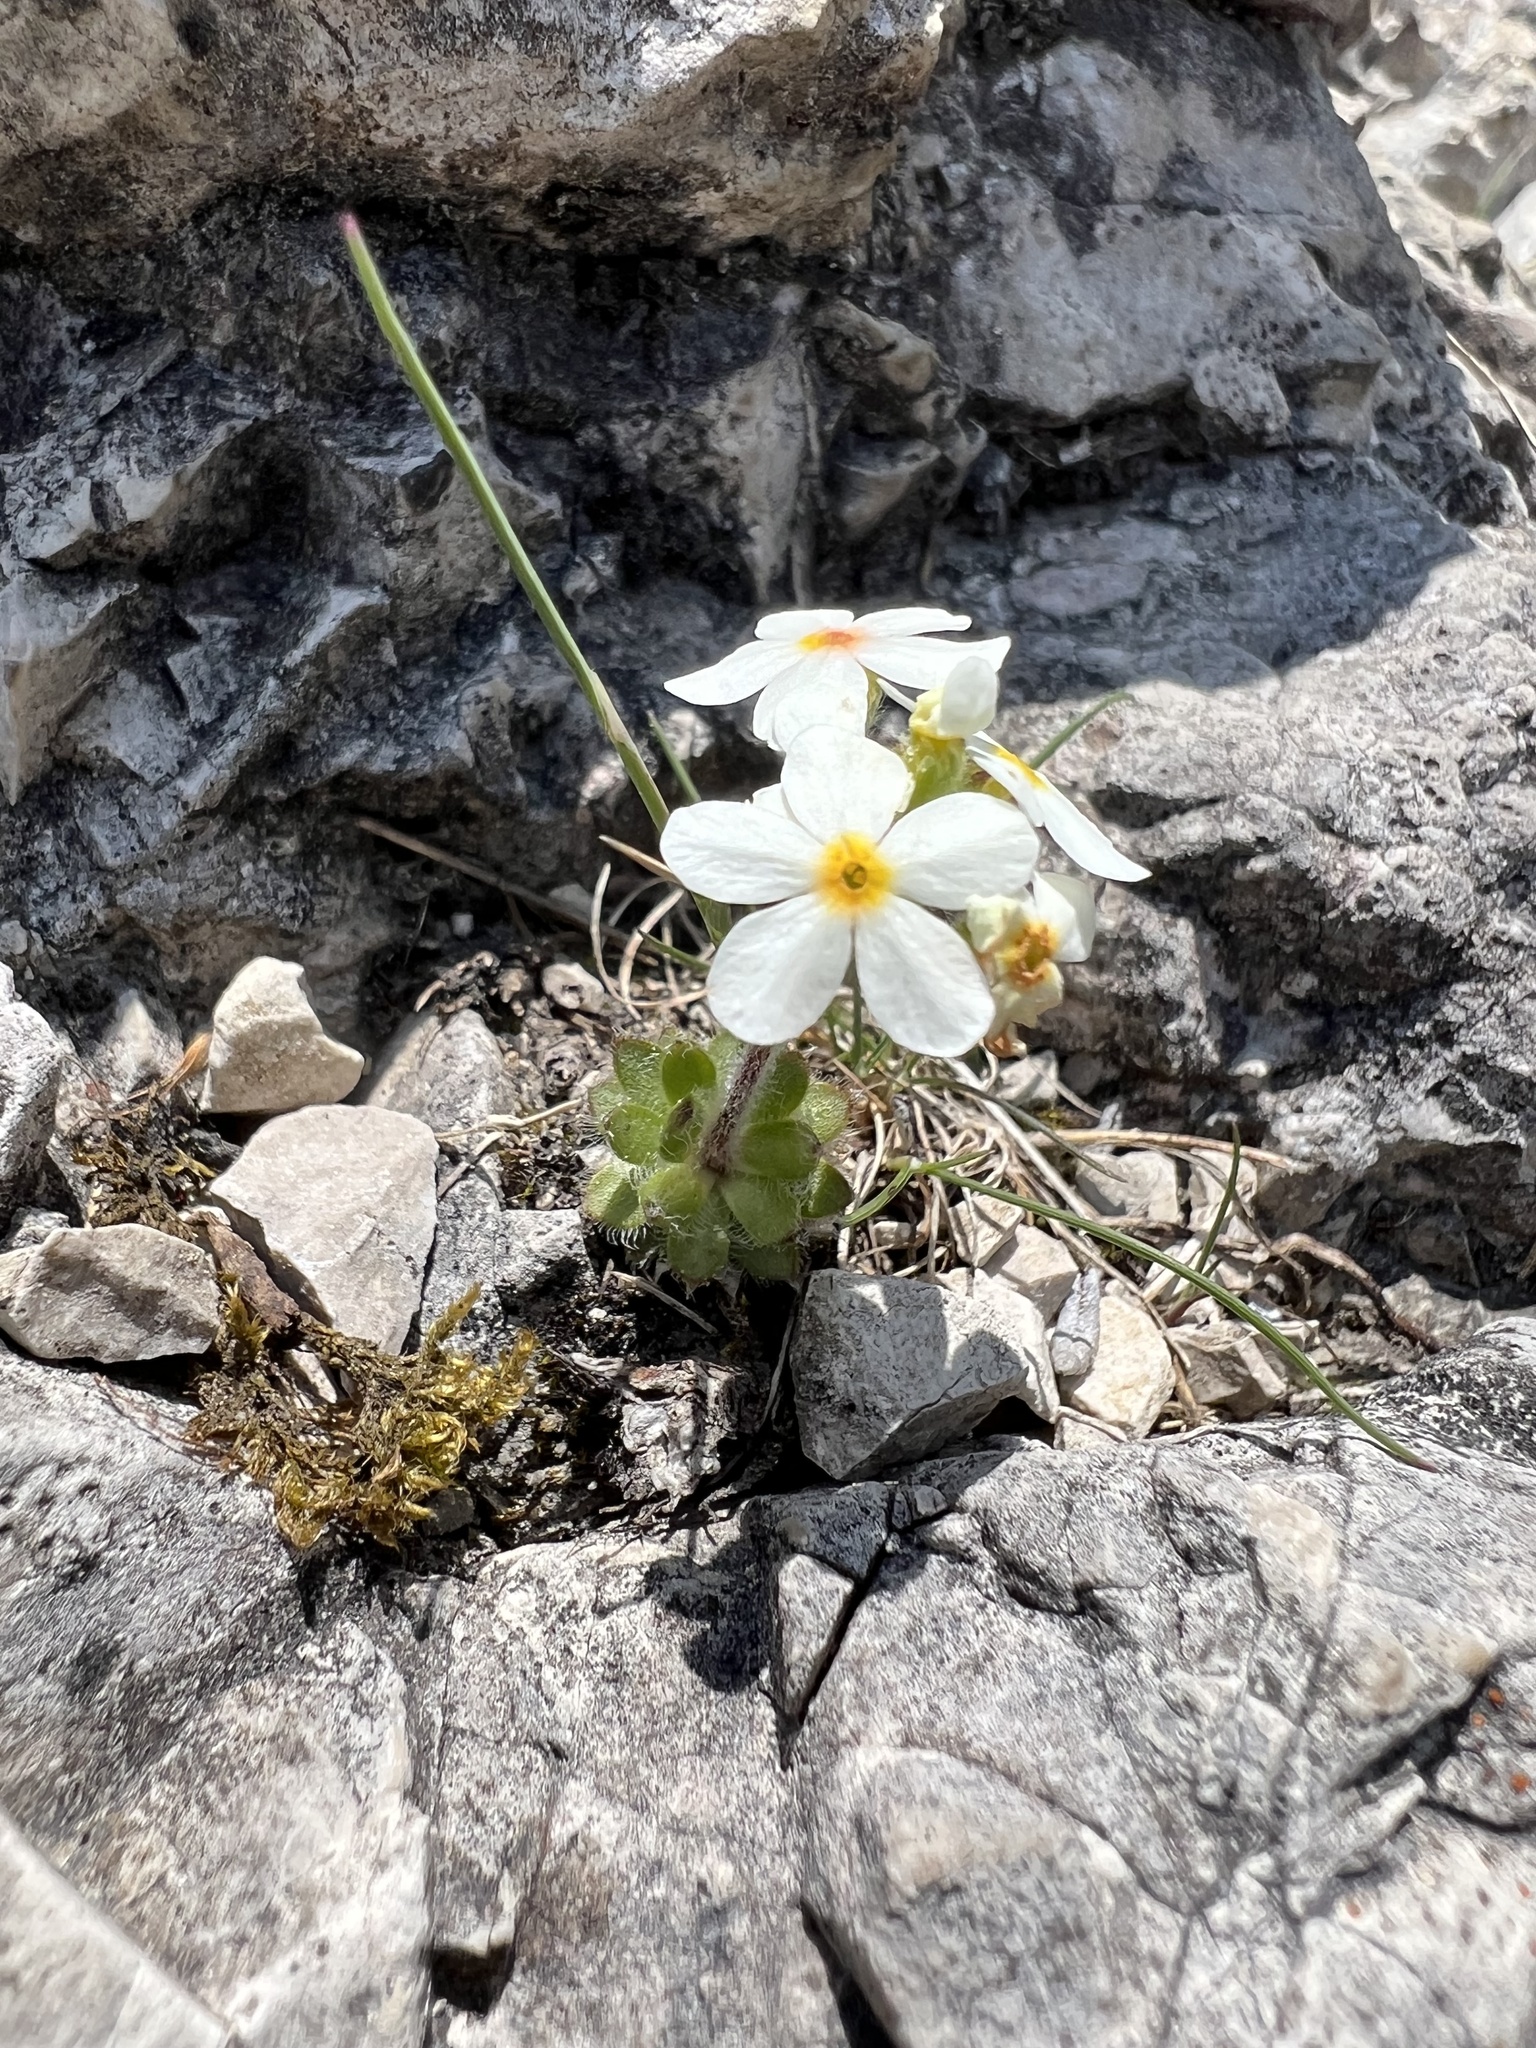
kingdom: Plantae
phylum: Tracheophyta
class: Magnoliopsida
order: Ericales
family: Primulaceae
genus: Androsace
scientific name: Androsace chamaejasme
